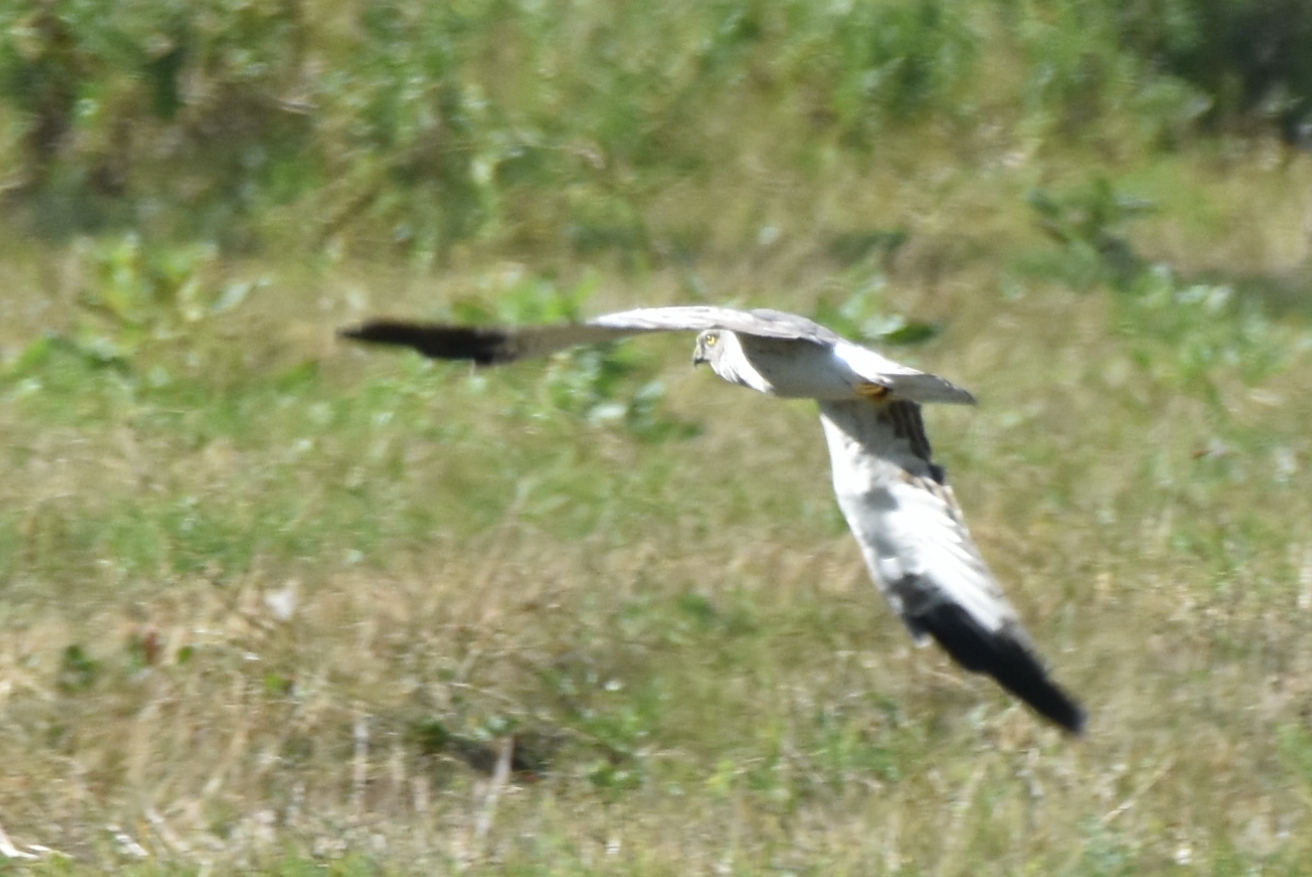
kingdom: Animalia
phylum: Chordata
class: Aves
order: Accipitriformes
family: Accipitridae
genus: Circus
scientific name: Circus cyaneus
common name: Hen harrier
